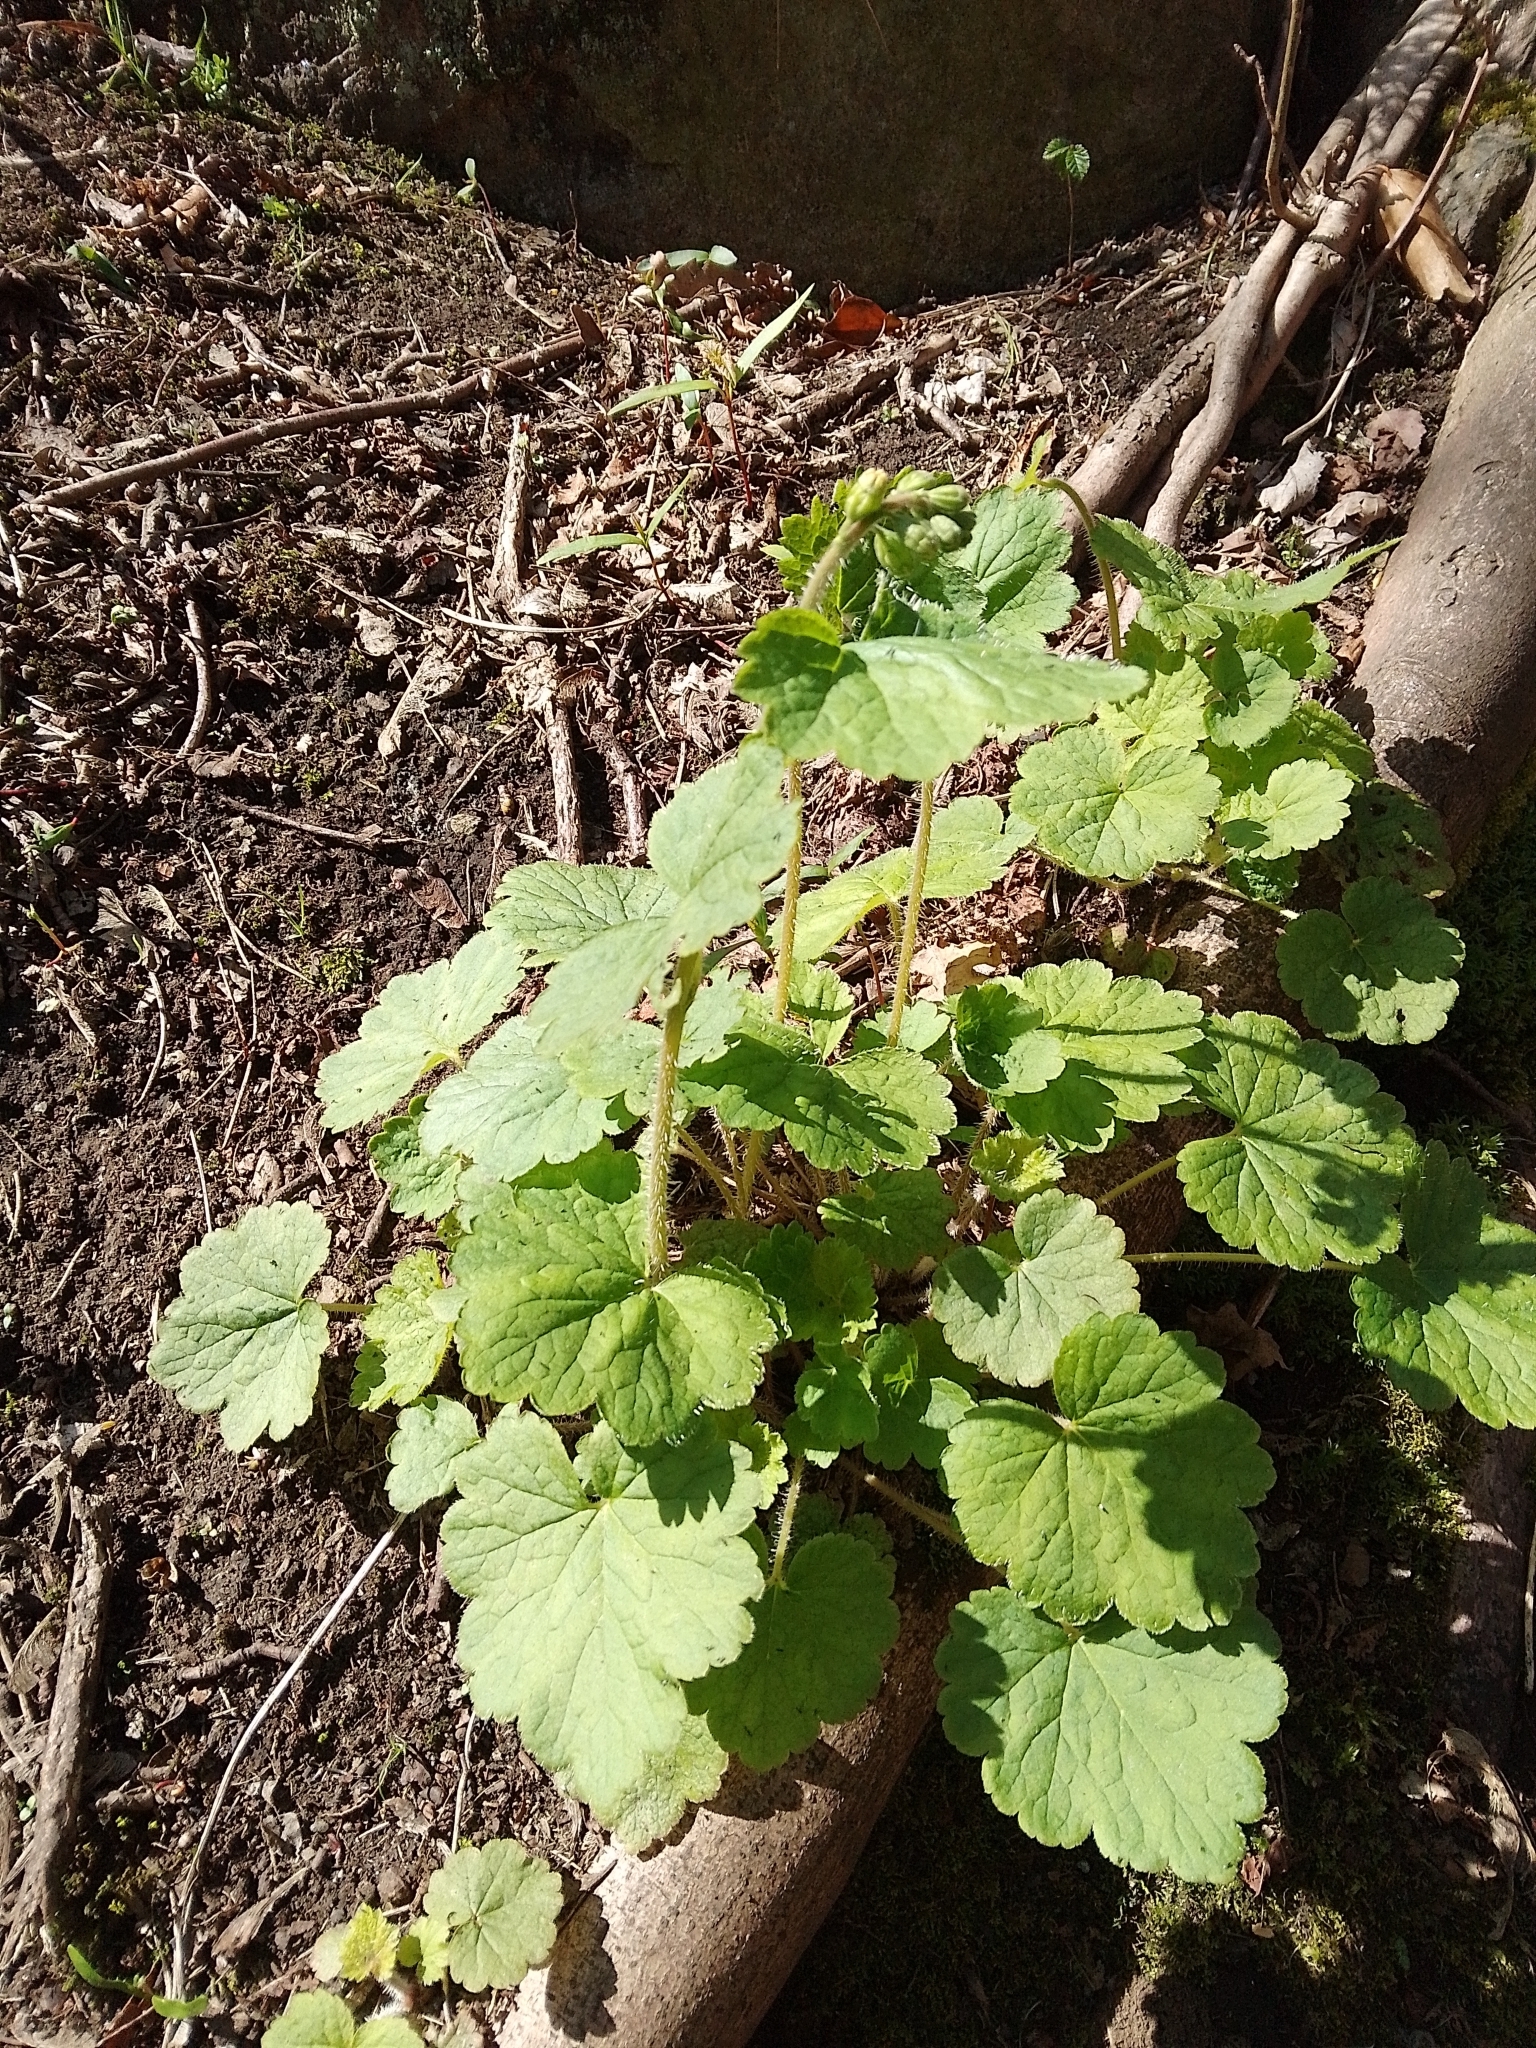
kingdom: Plantae
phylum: Tracheophyta
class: Magnoliopsida
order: Saxifragales
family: Saxifragaceae
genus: Tellima
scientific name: Tellima grandiflora
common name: Fringecups
